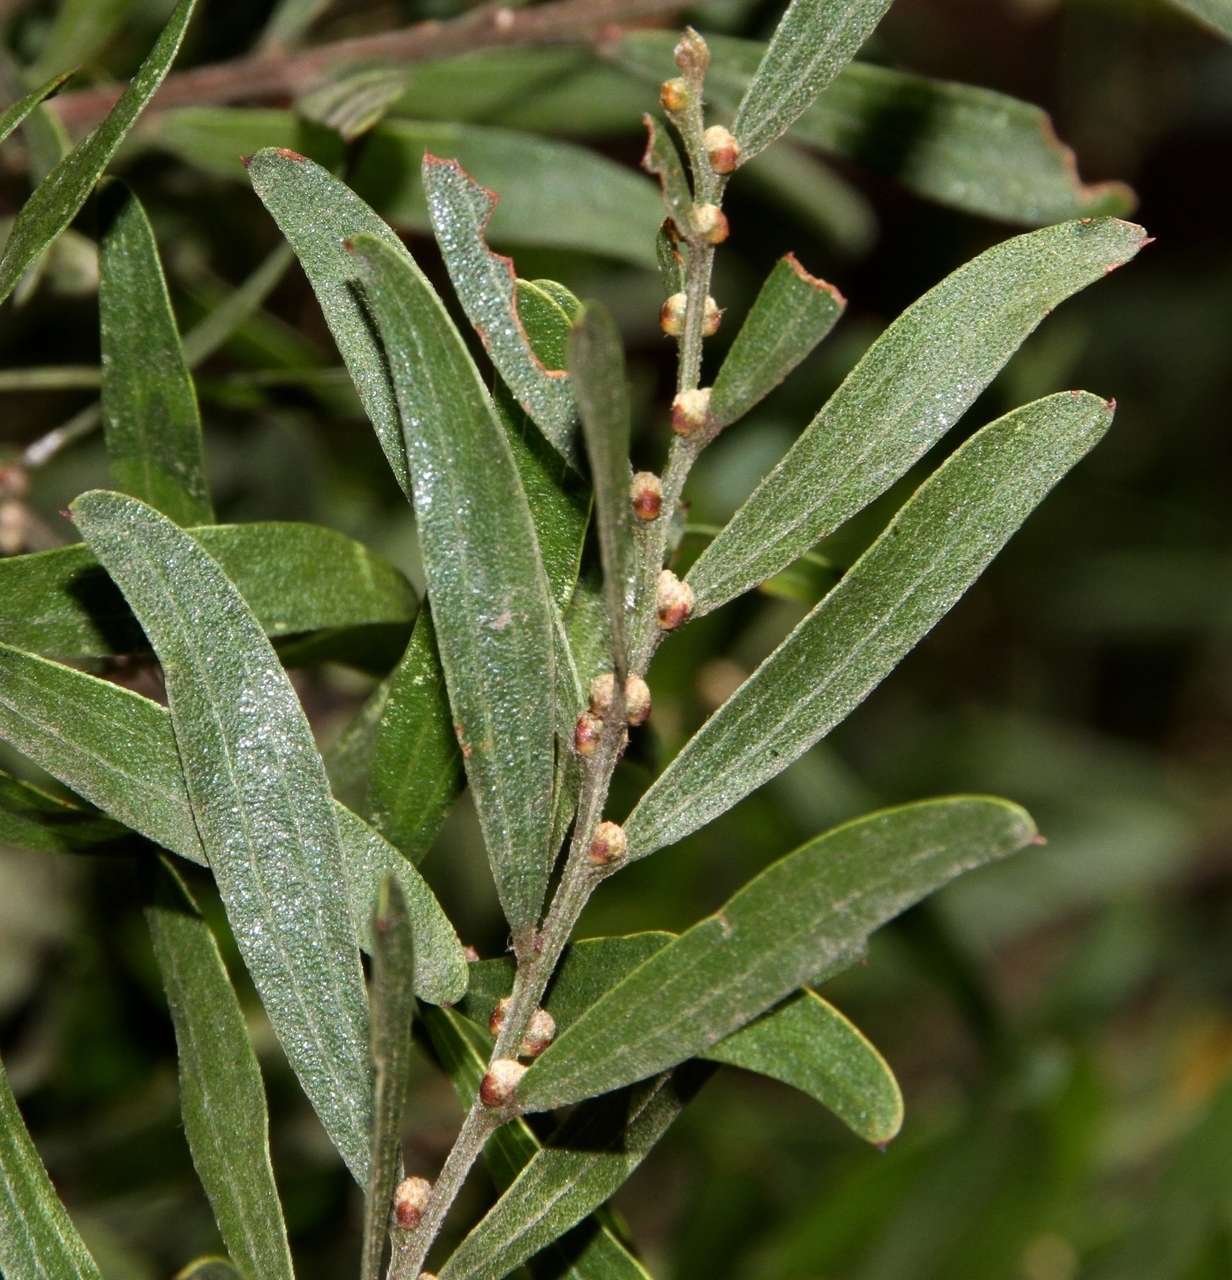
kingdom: Plantae
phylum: Tracheophyta
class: Magnoliopsida
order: Fabales
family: Fabaceae
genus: Acacia
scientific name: Acacia rostriformis
